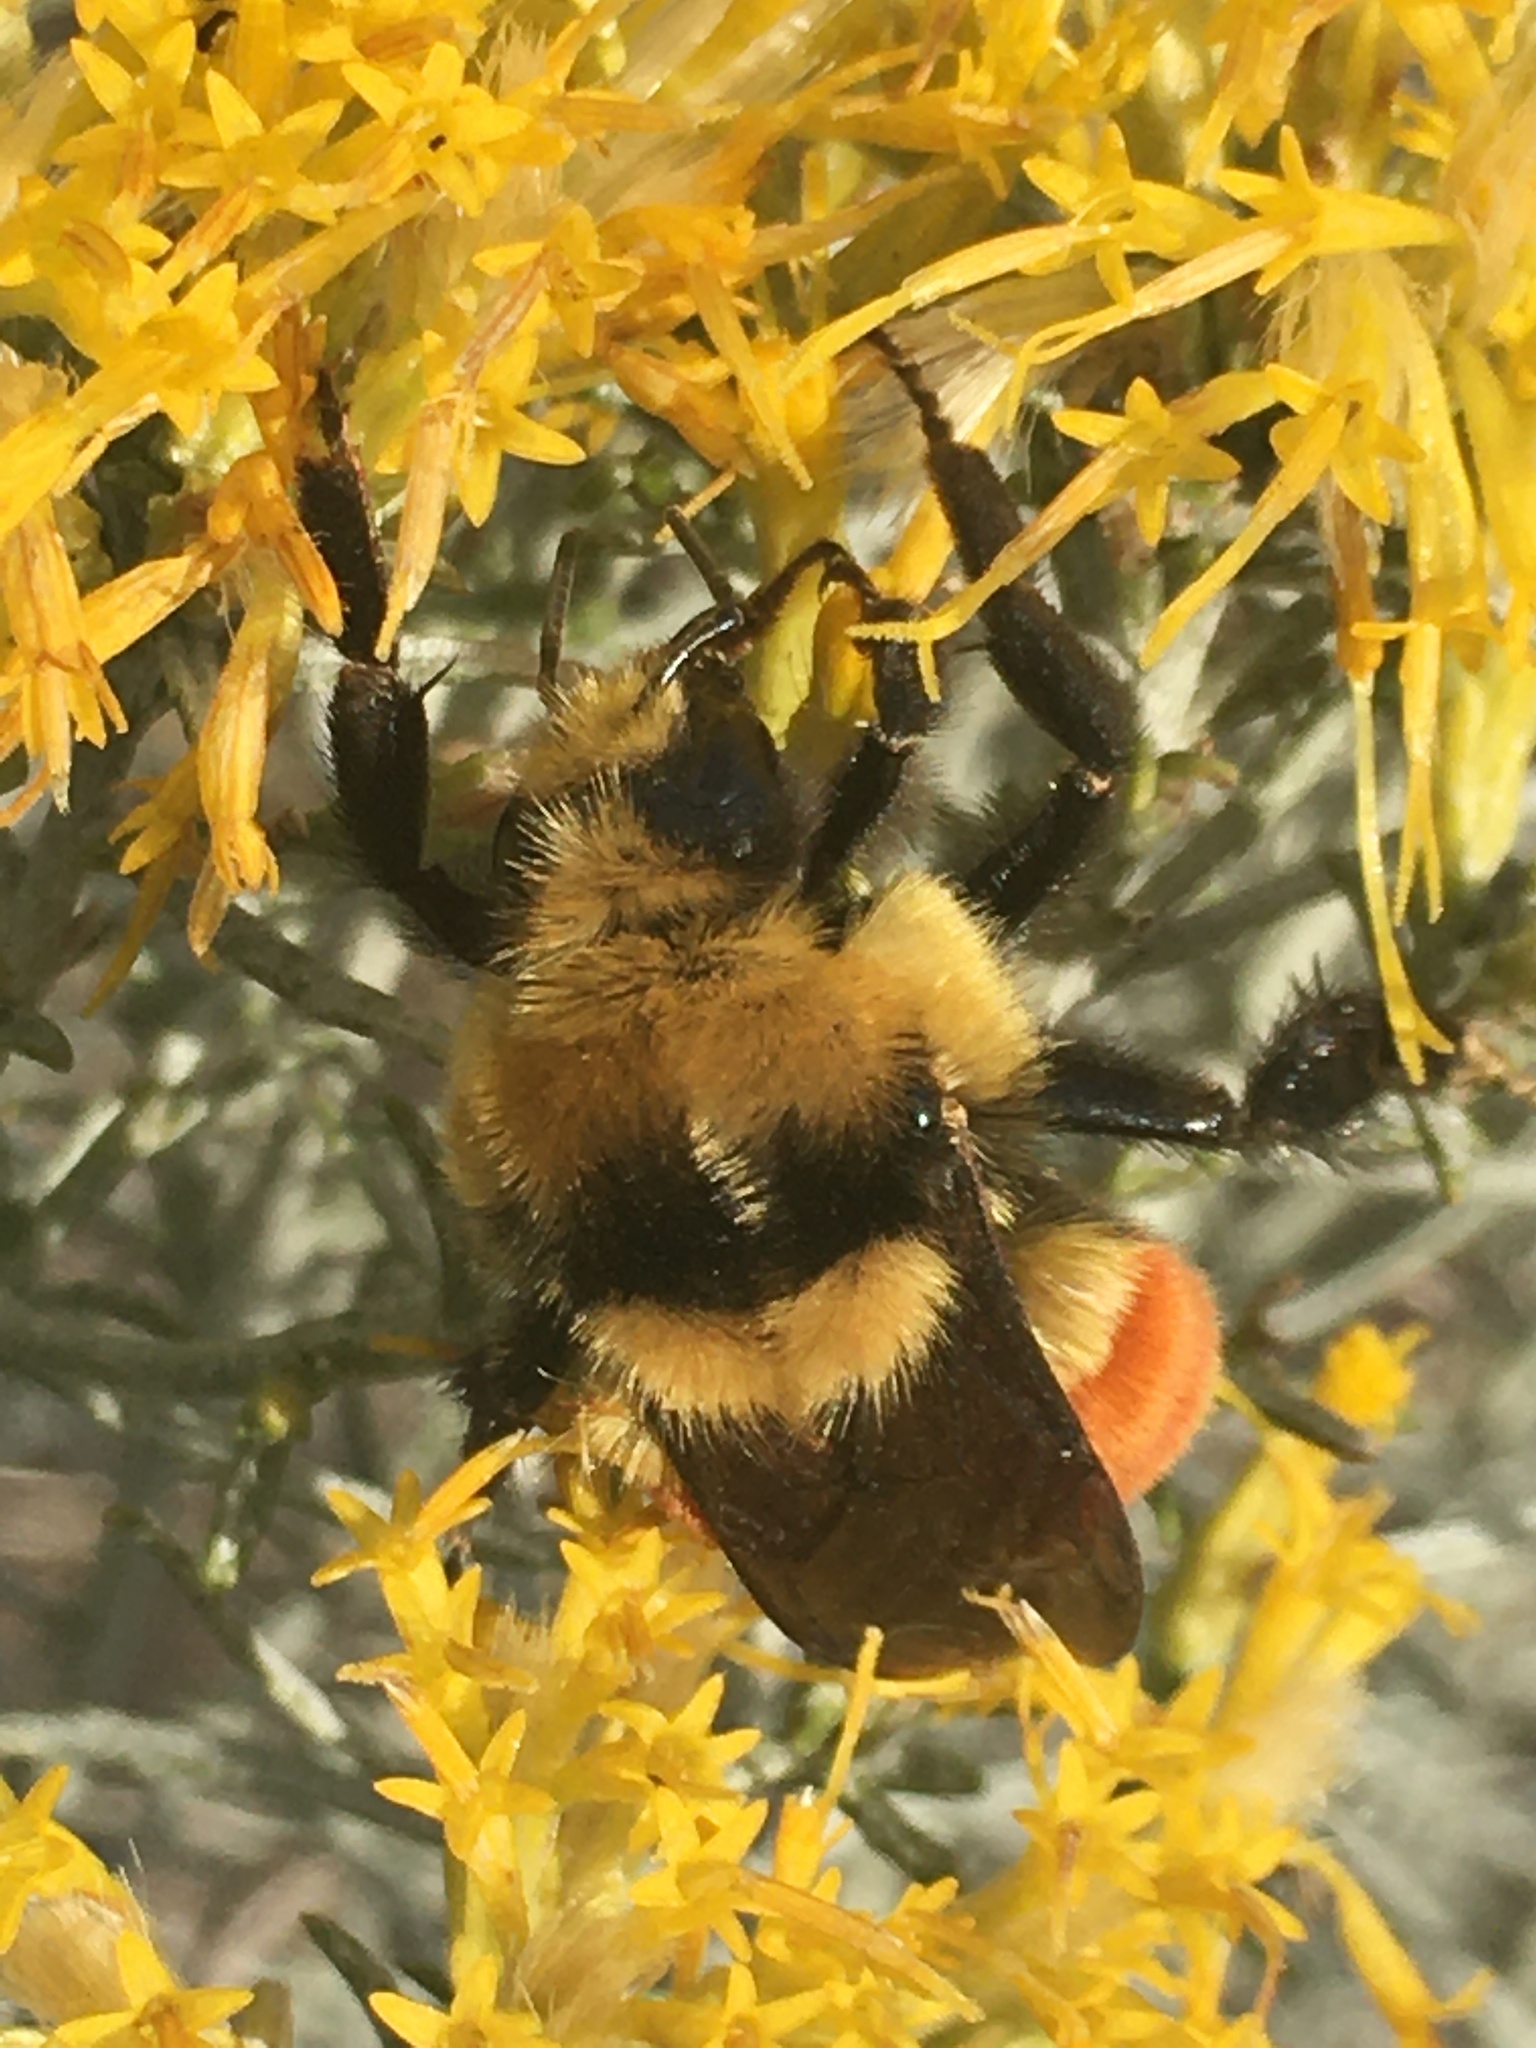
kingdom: Animalia
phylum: Arthropoda
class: Insecta
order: Hymenoptera
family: Apidae
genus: Bombus
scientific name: Bombus huntii
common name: Hunt bumble bee
